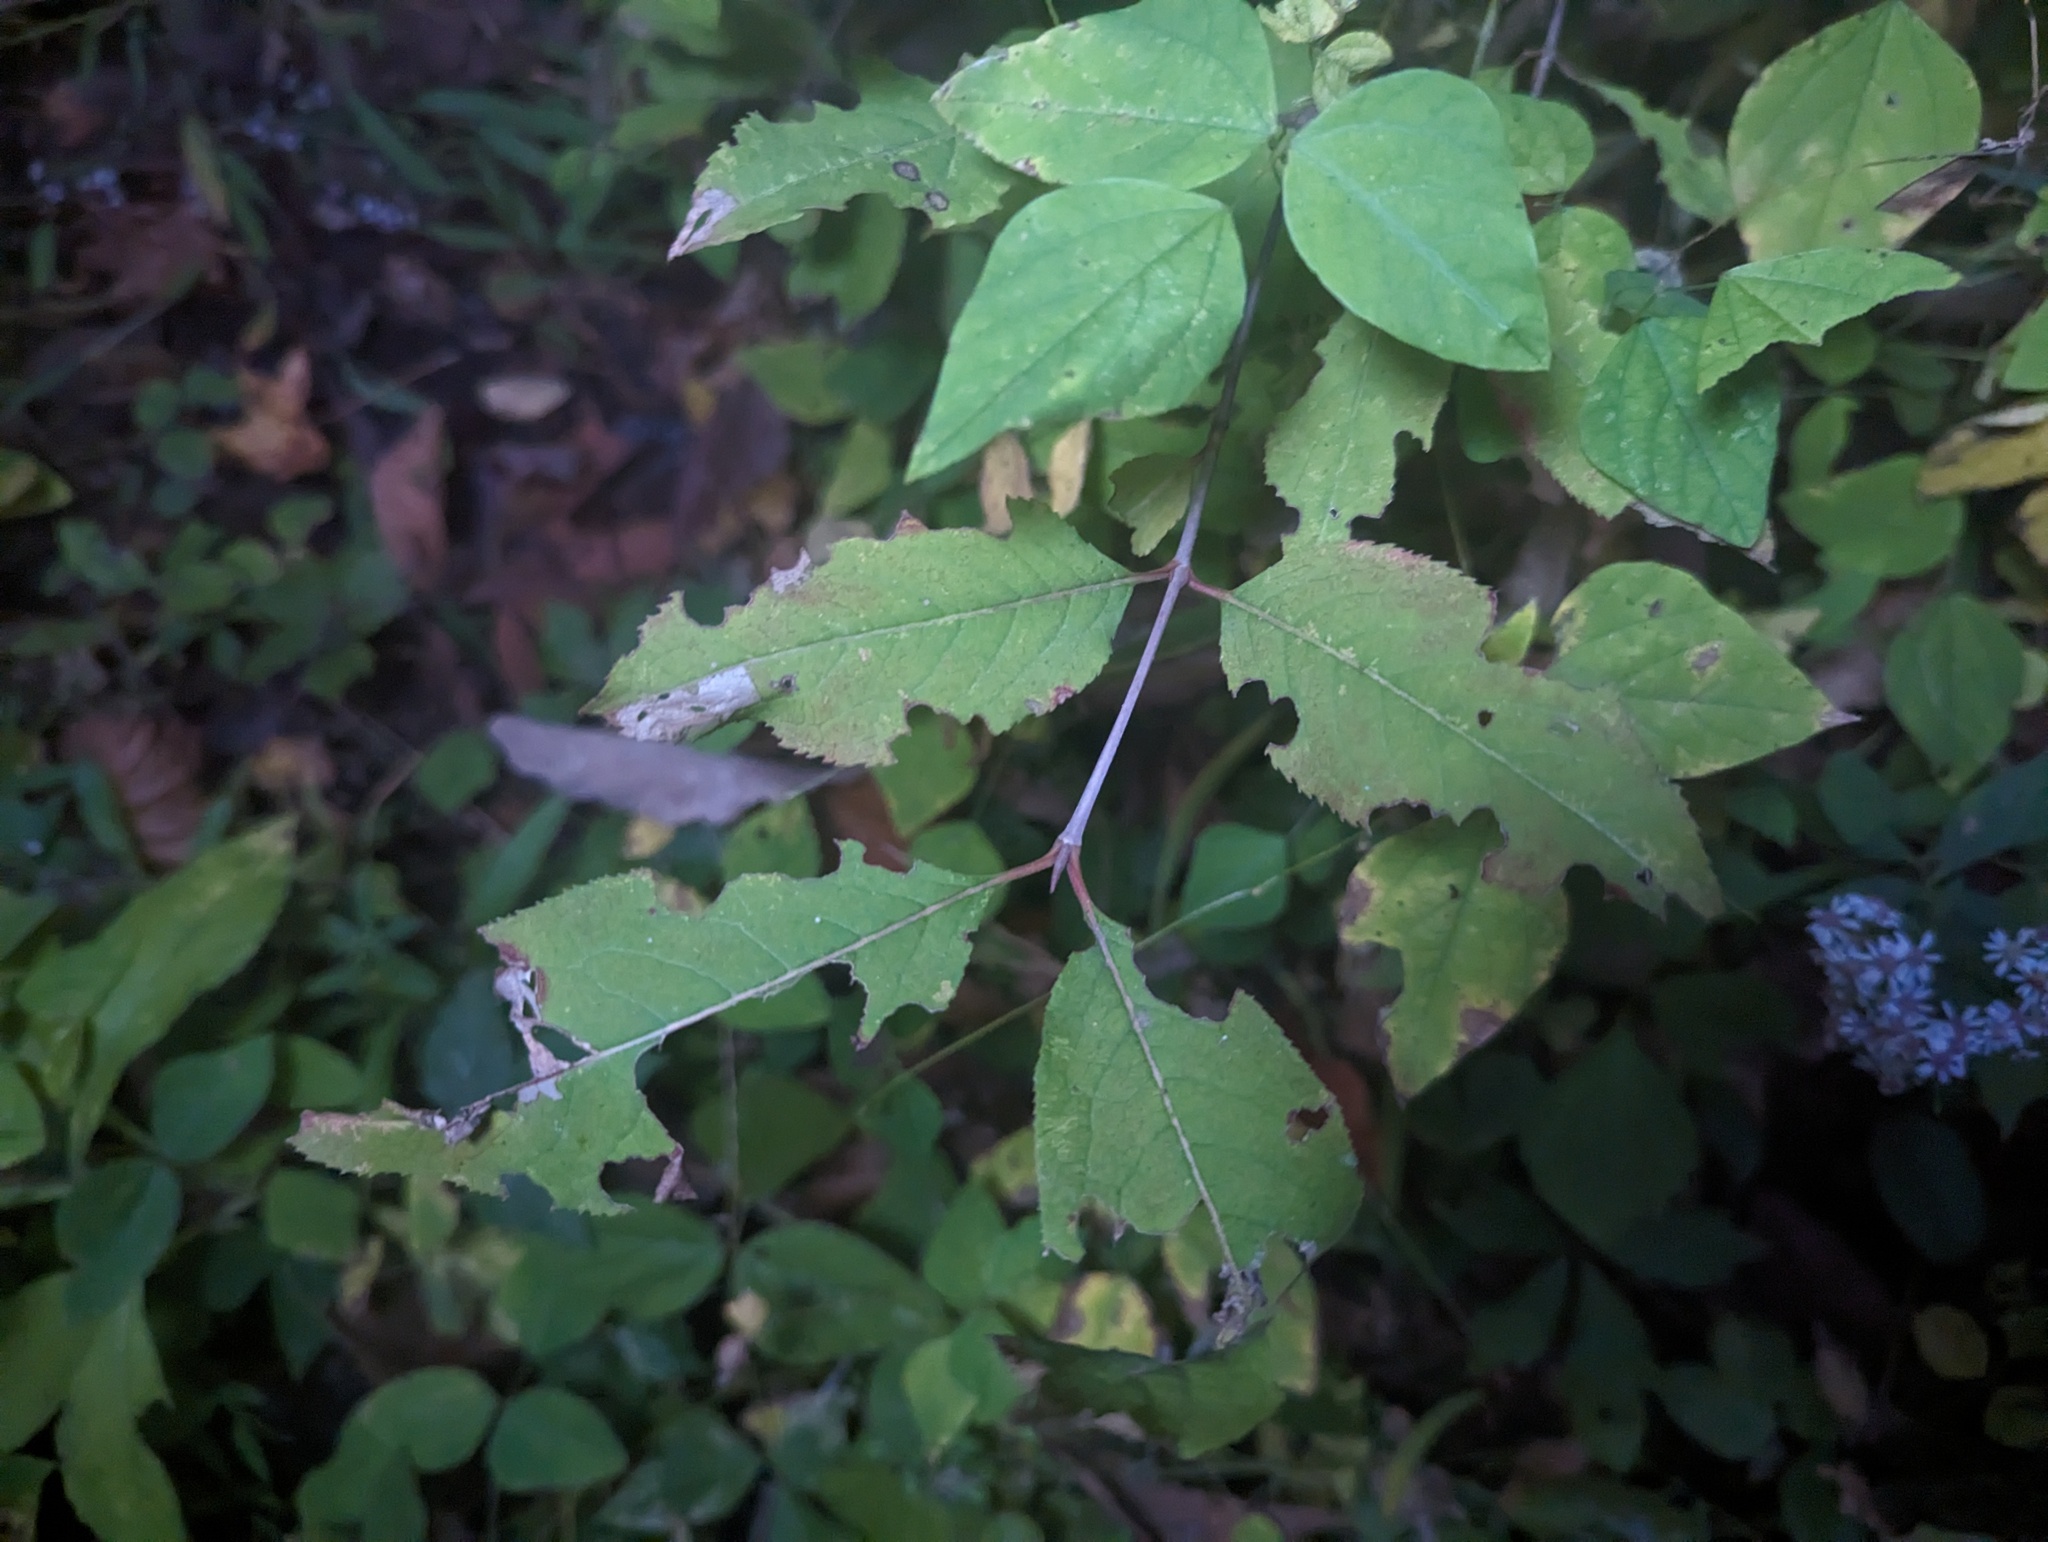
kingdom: Plantae
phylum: Tracheophyta
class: Magnoliopsida
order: Dipsacales
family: Viburnaceae
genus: Viburnum
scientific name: Viburnum prunifolium
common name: Black haw
